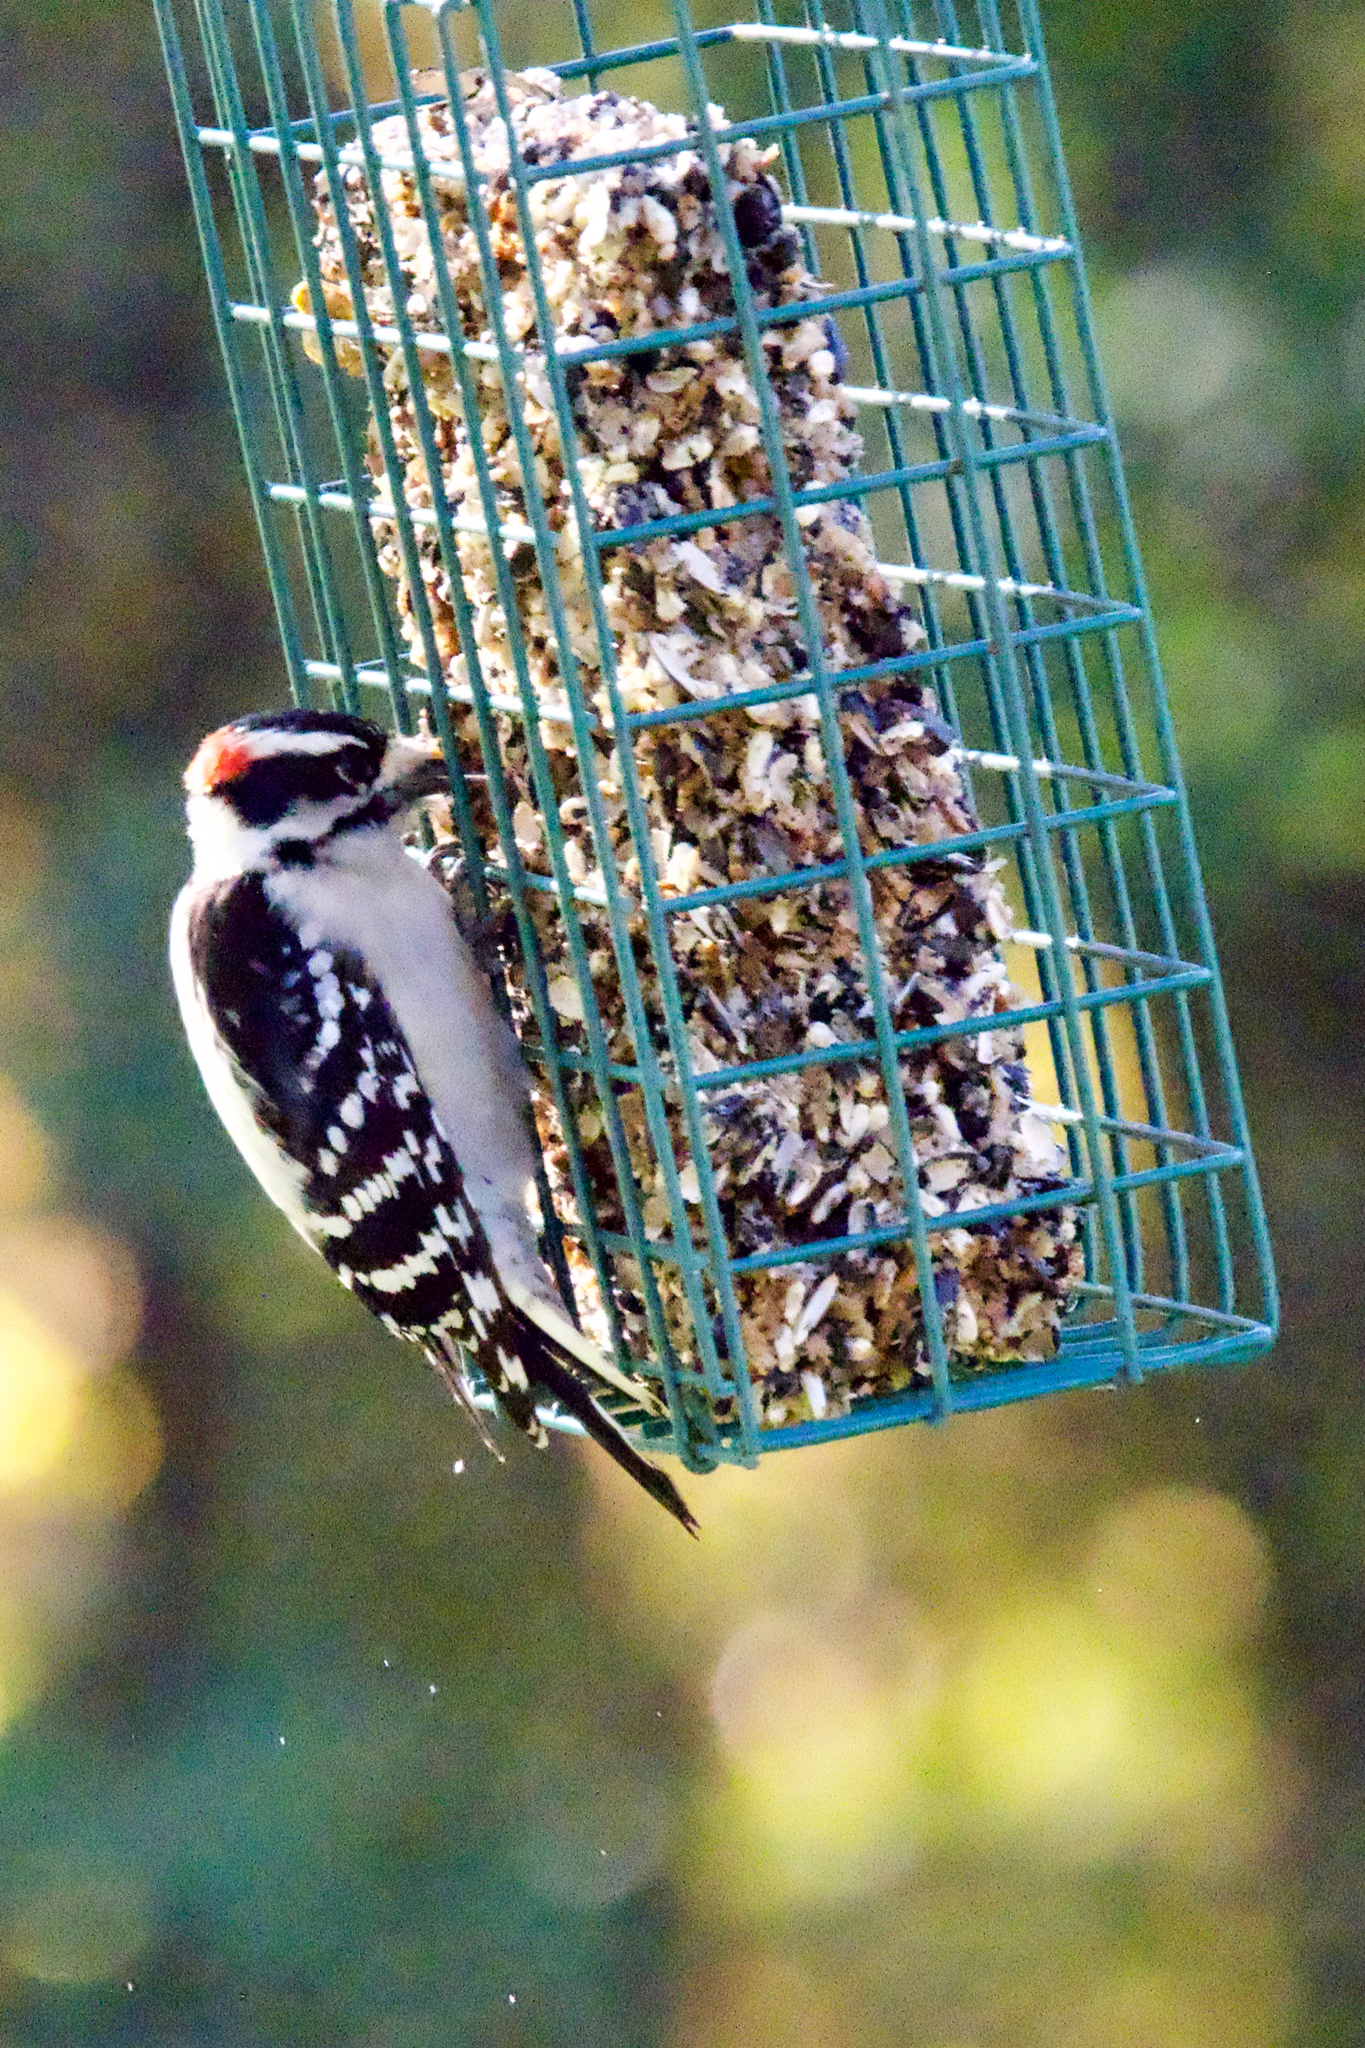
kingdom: Animalia
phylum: Chordata
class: Aves
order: Piciformes
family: Picidae
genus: Leuconotopicus
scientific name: Leuconotopicus villosus
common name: Hairy woodpecker
